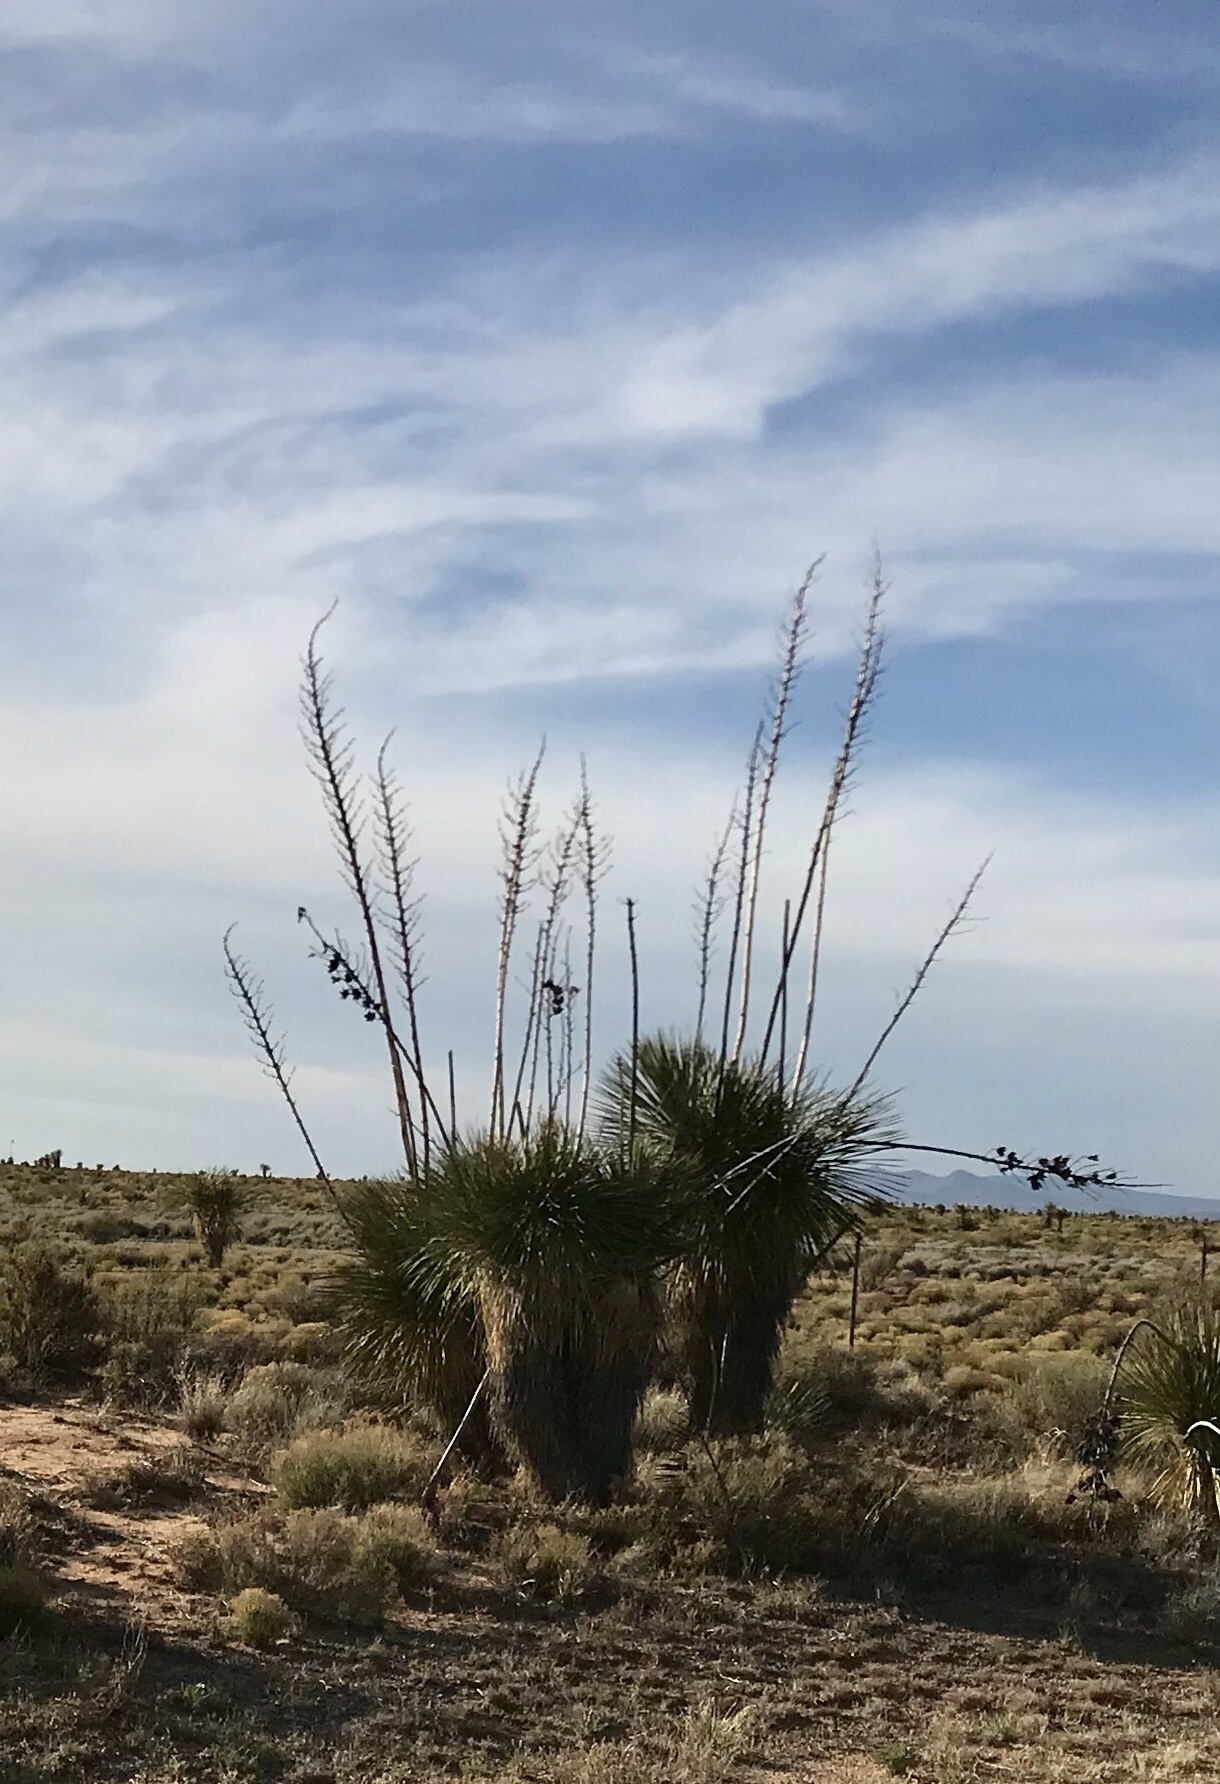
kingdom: Plantae
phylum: Tracheophyta
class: Liliopsida
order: Asparagales
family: Asparagaceae
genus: Yucca
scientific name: Yucca elata
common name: Palmella
